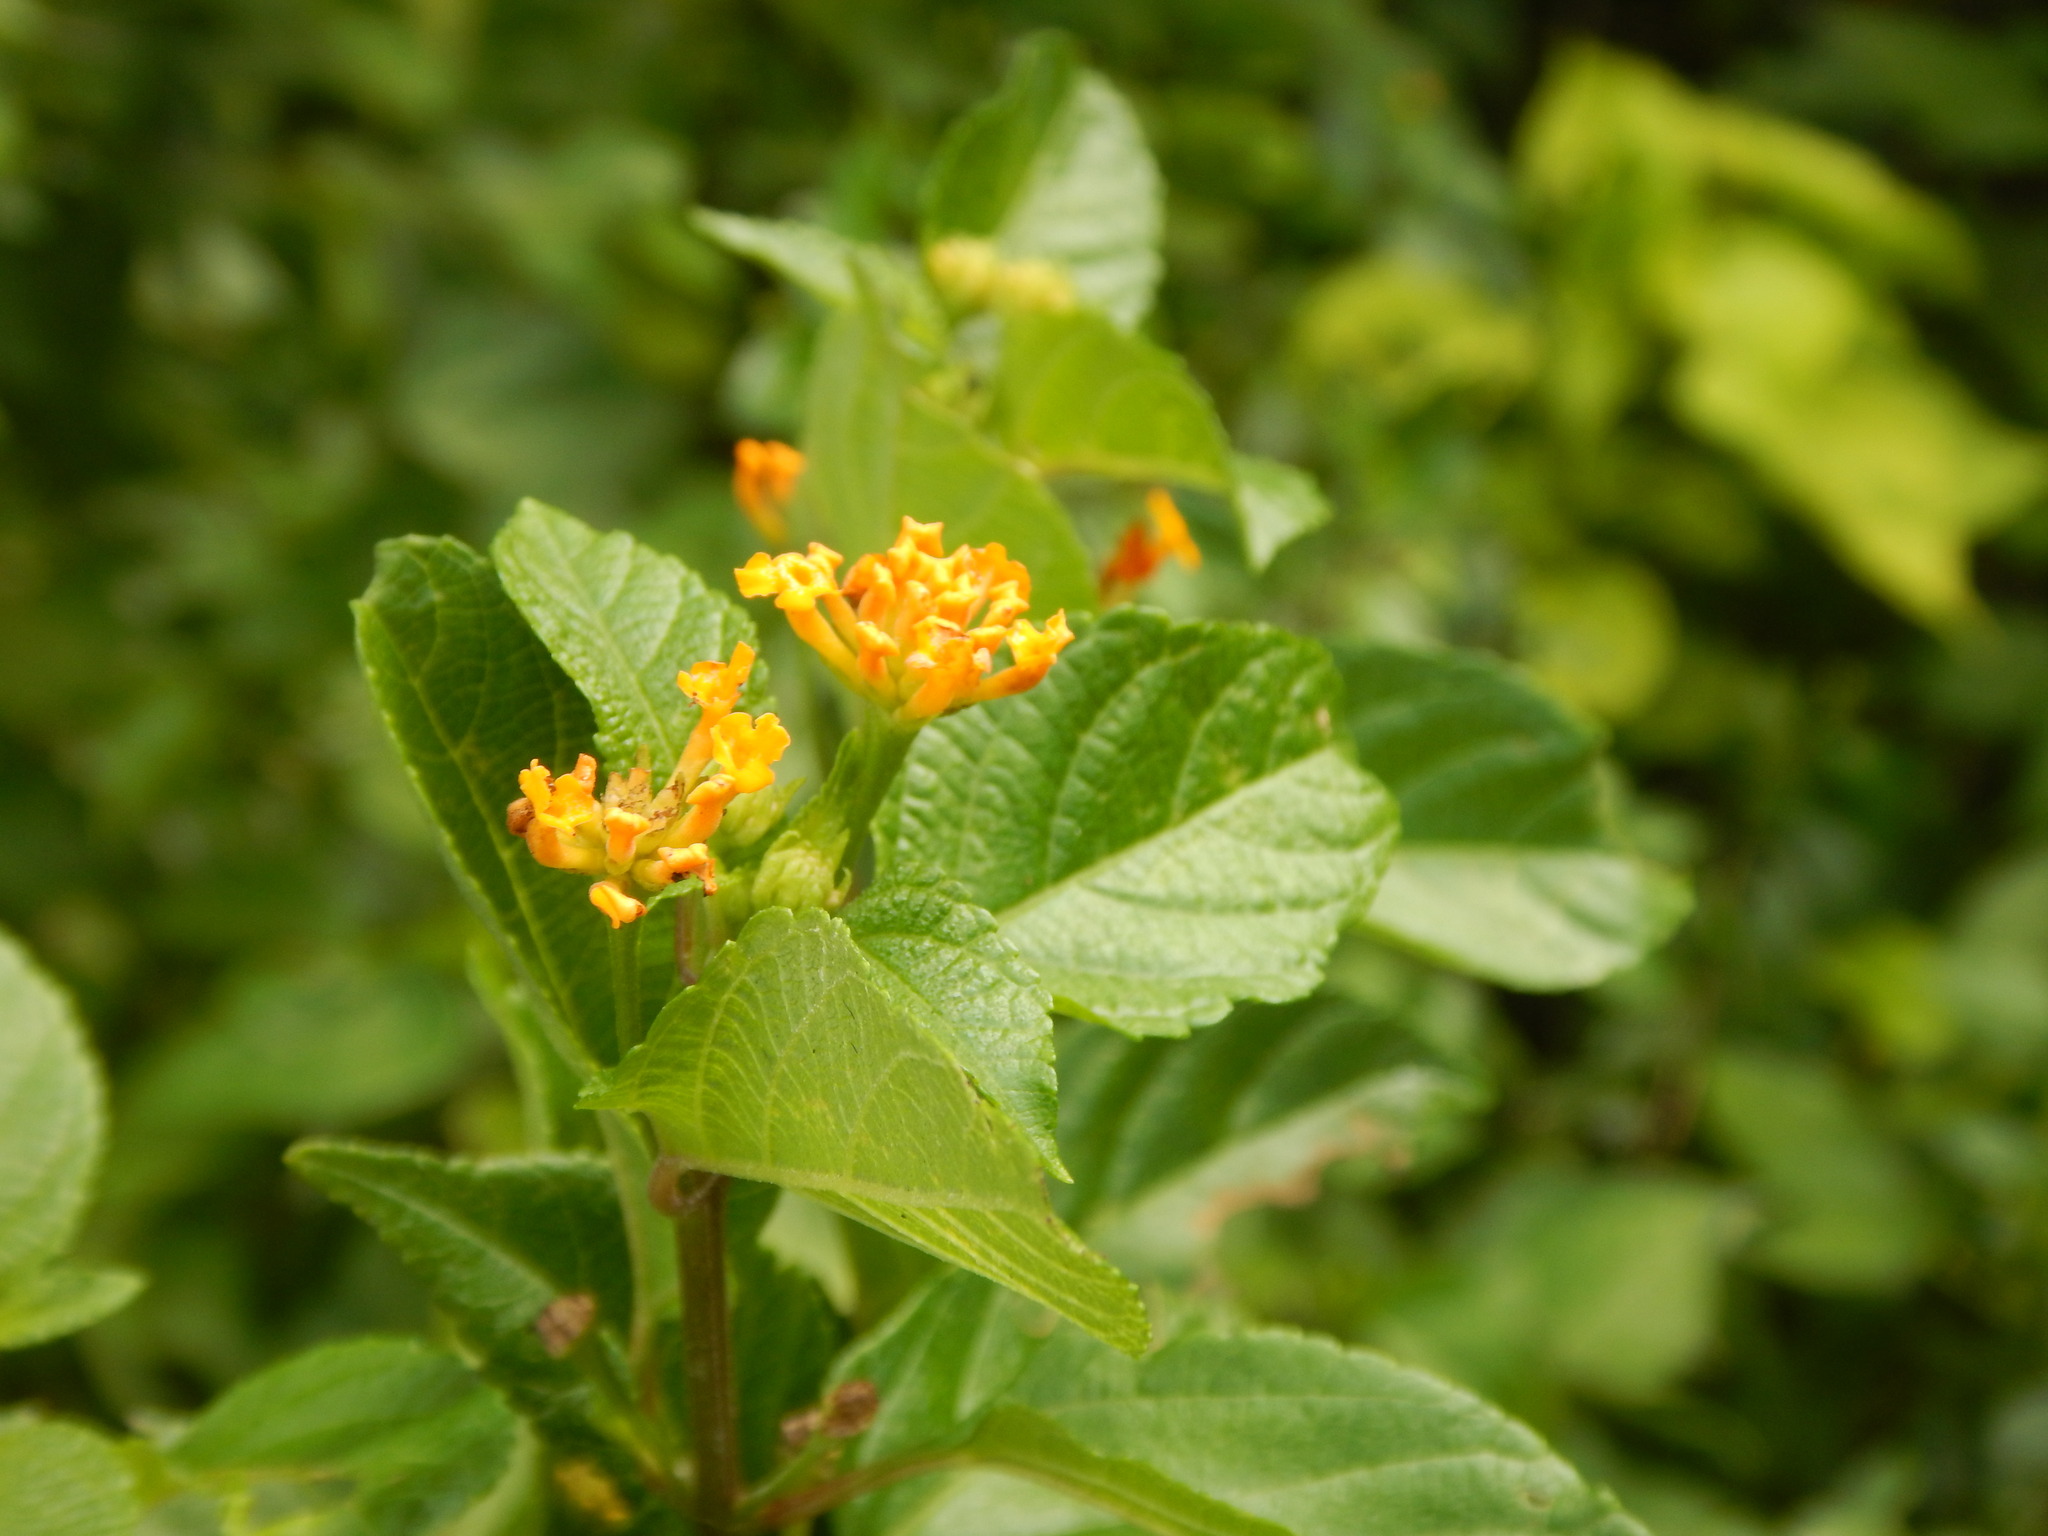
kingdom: Plantae
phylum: Tracheophyta
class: Magnoliopsida
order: Lamiales
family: Verbenaceae
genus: Lantana
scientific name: Lantana camara
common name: Lantana
